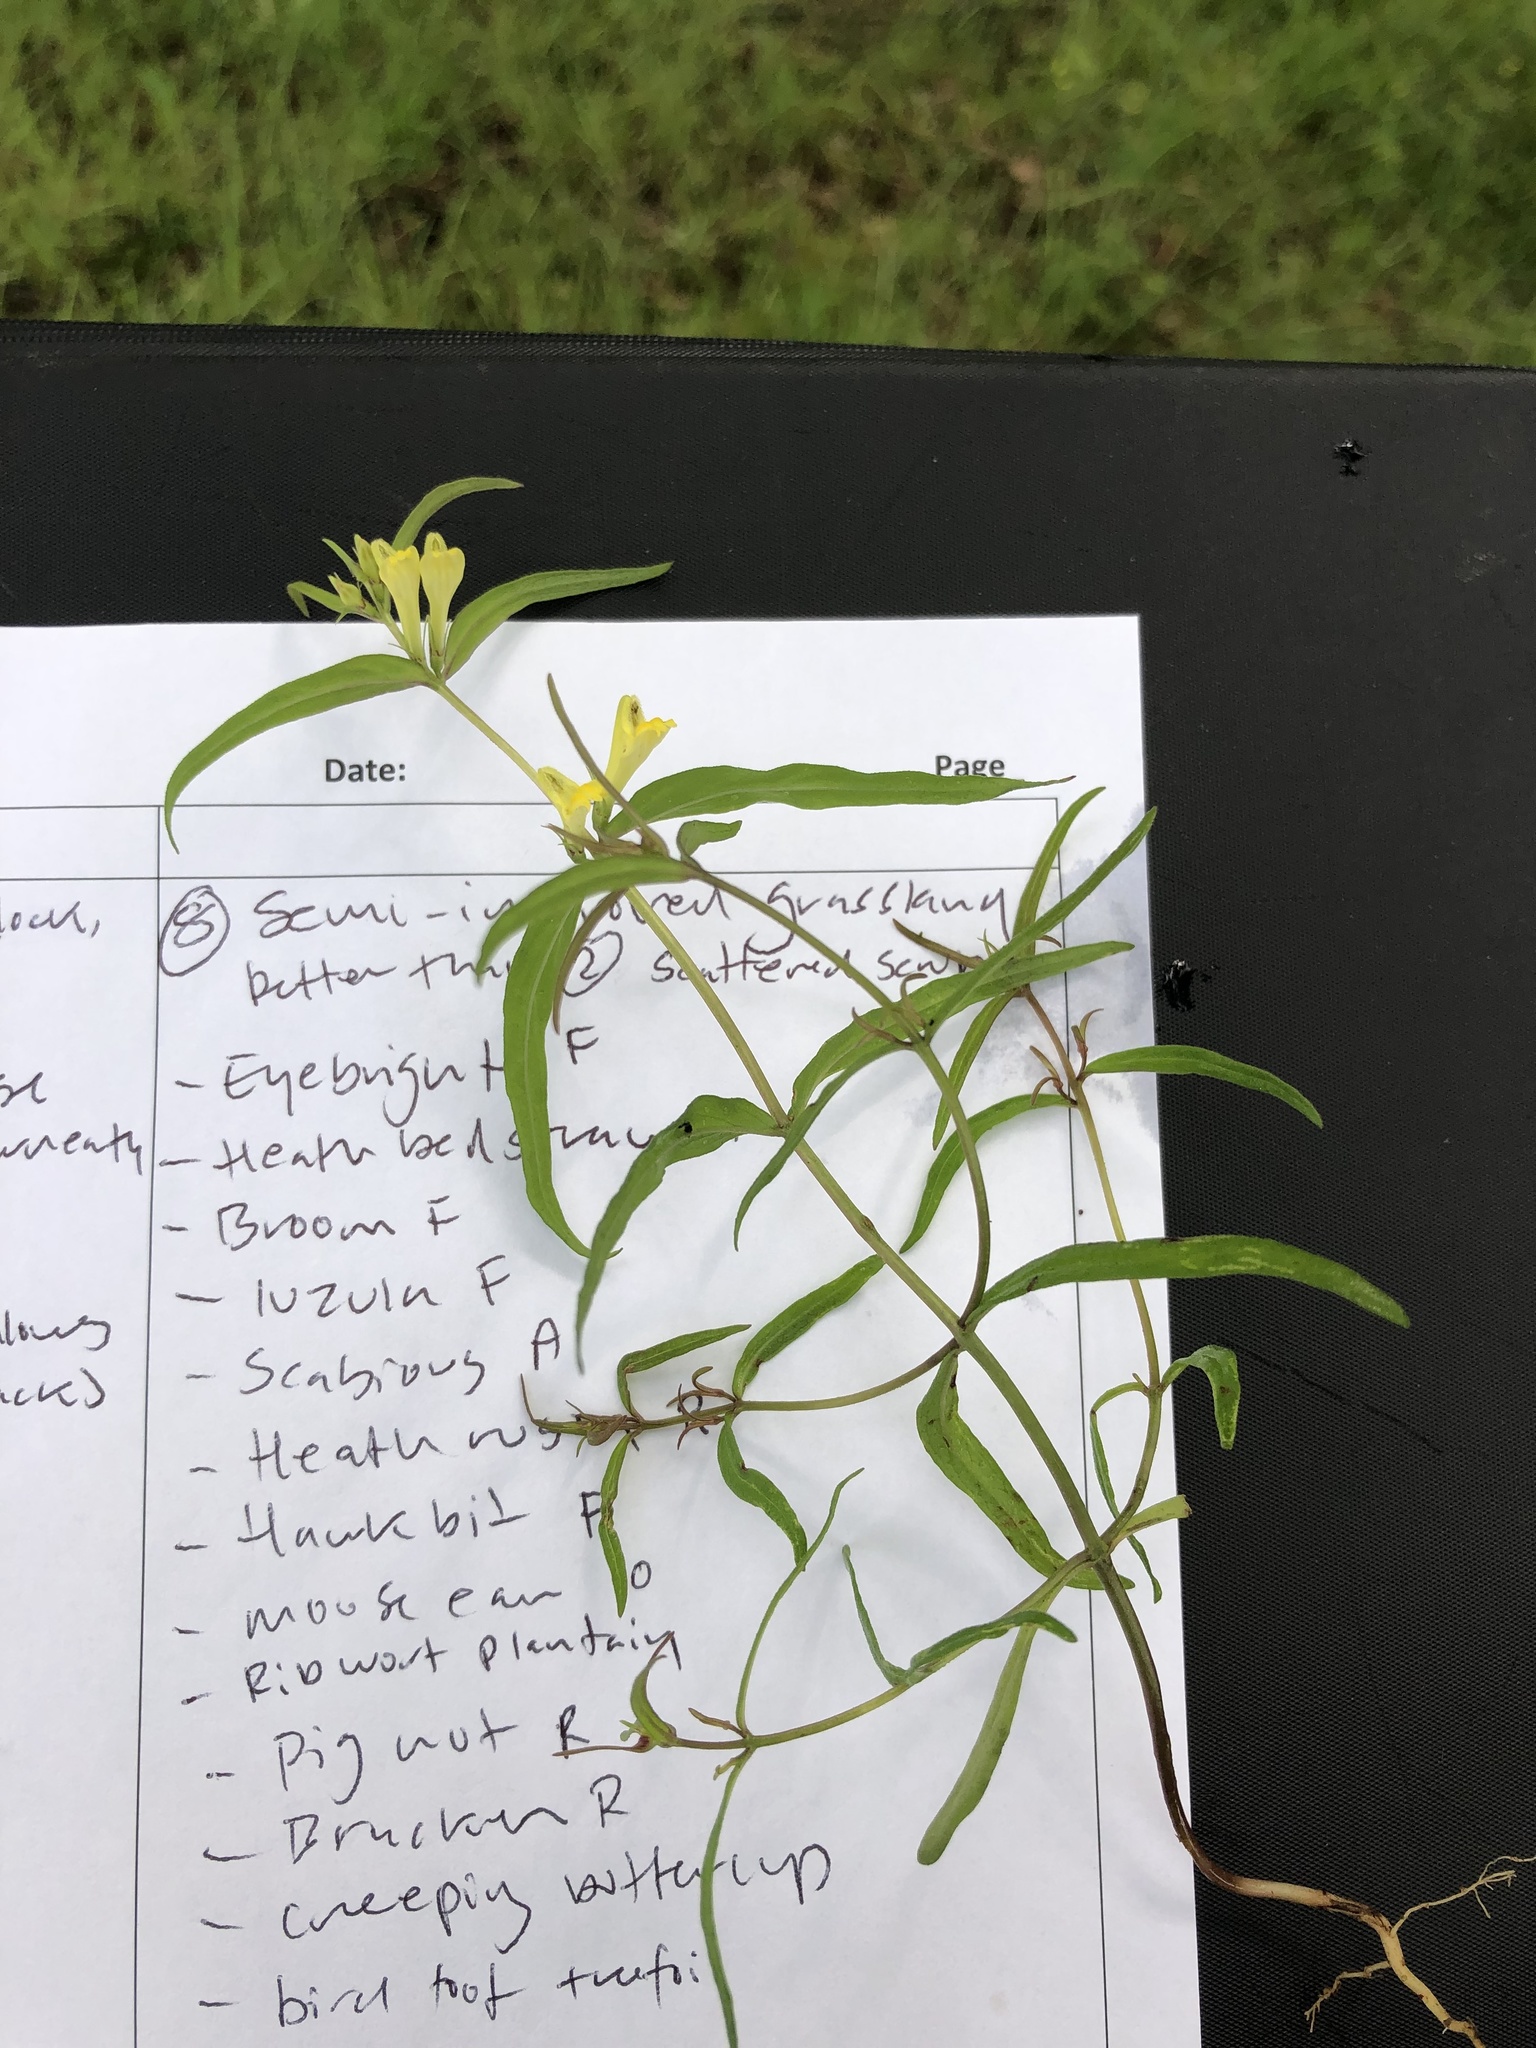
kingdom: Plantae
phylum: Tracheophyta
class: Magnoliopsida
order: Lamiales
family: Orobanchaceae
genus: Melampyrum
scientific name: Melampyrum pratense
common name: Common cow-wheat
